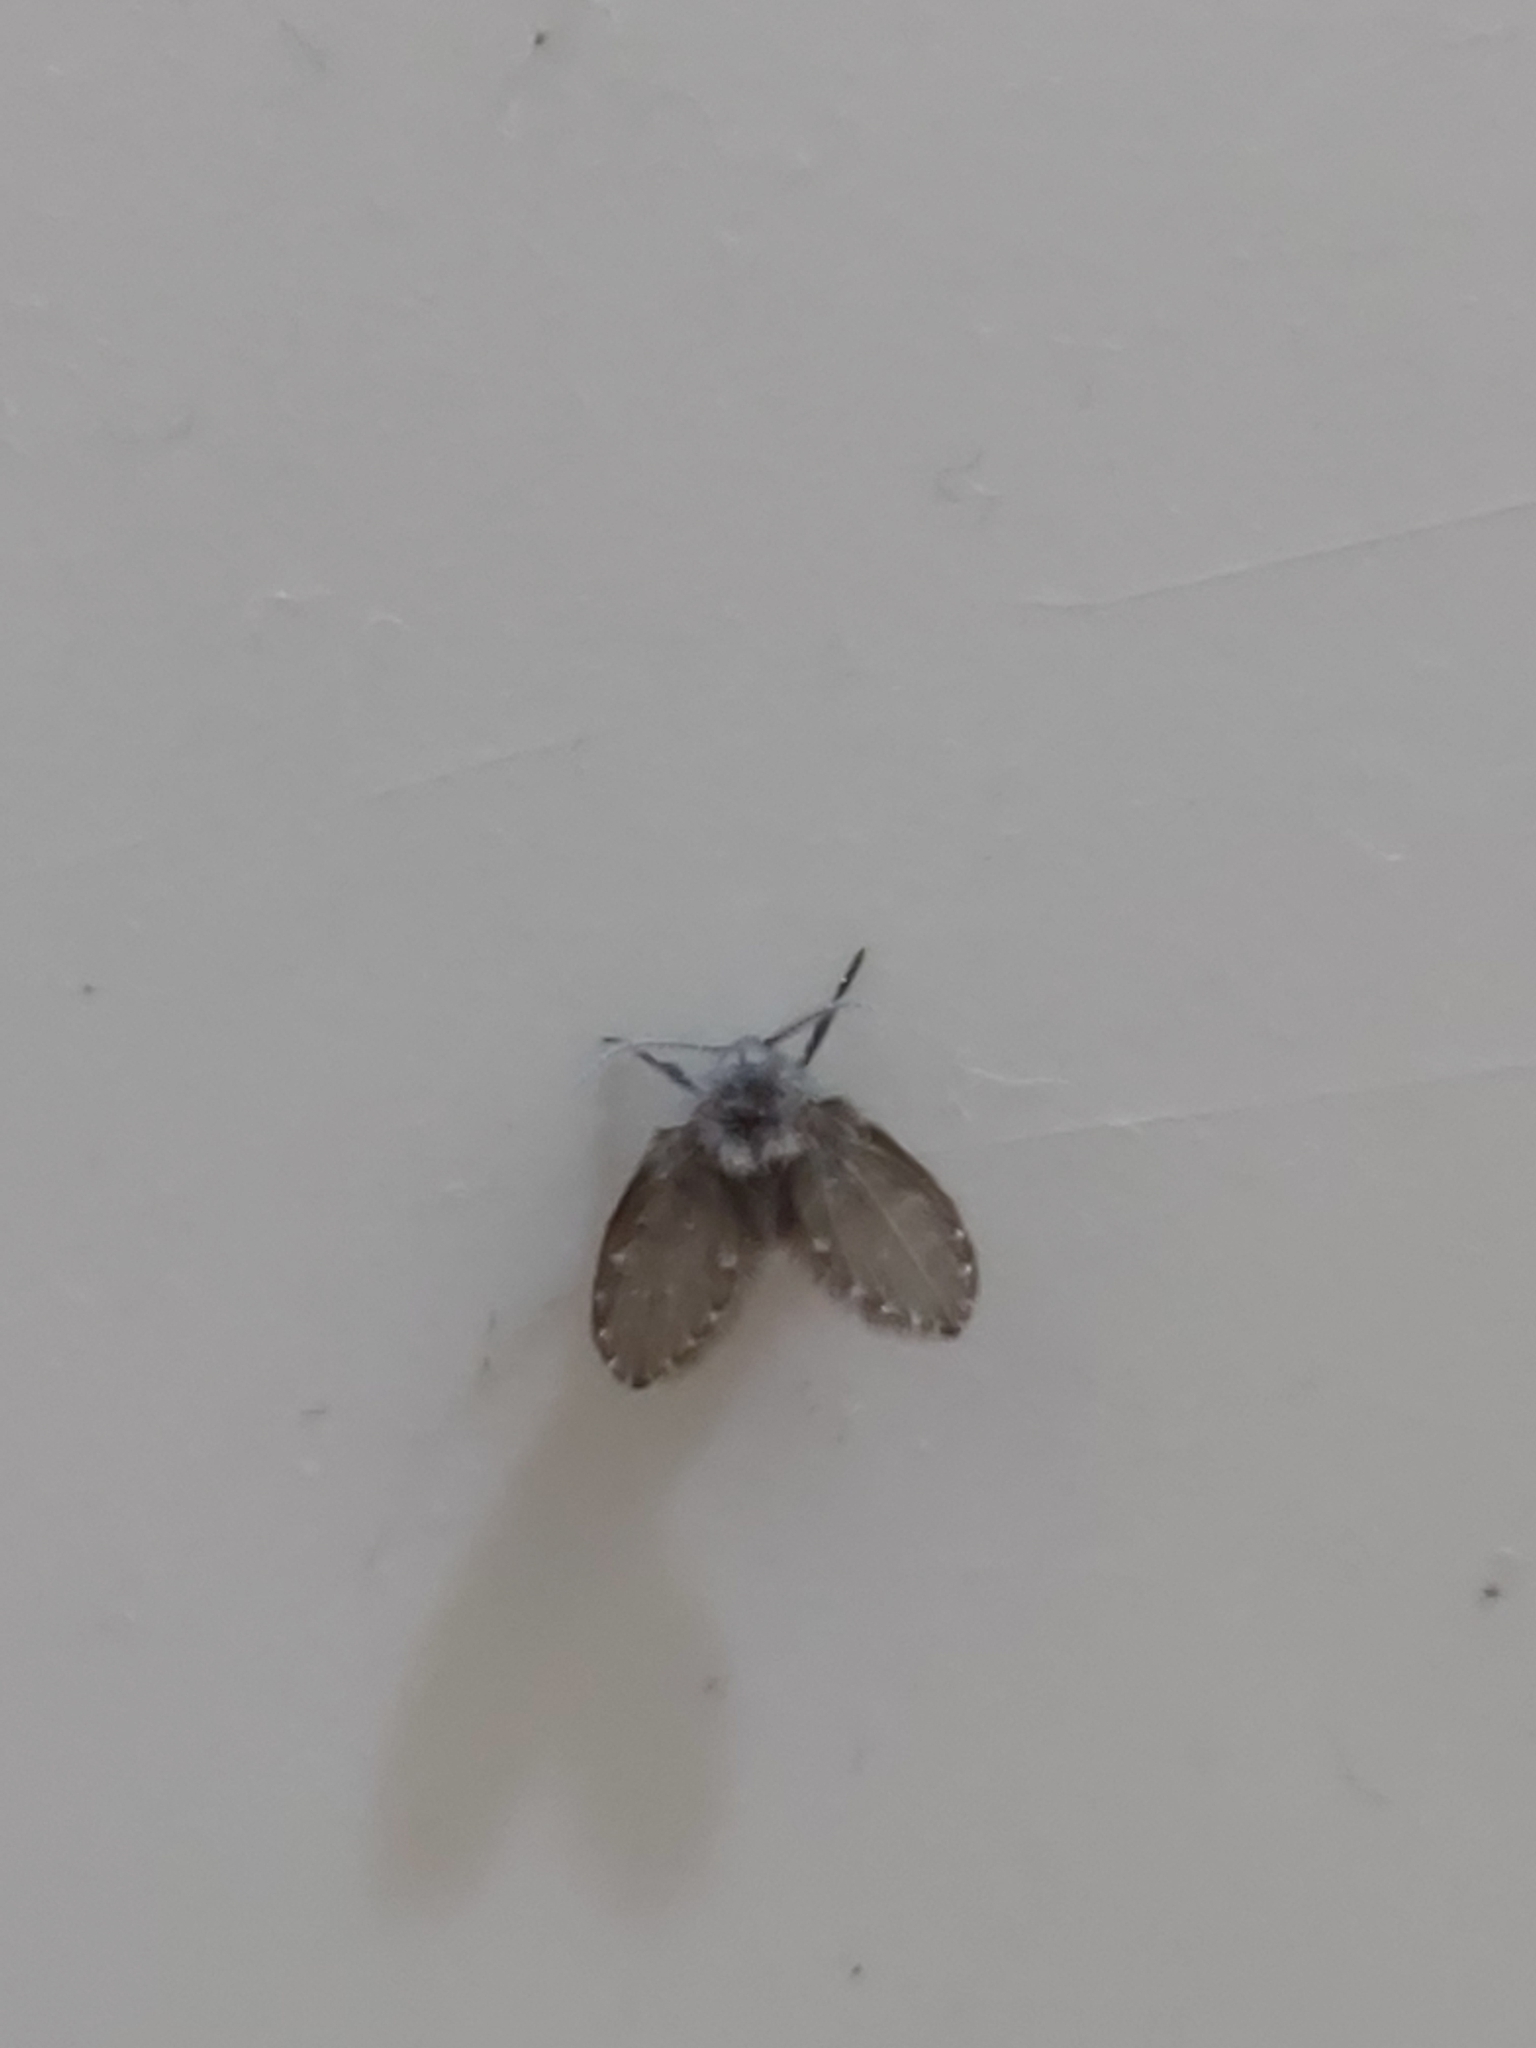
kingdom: Animalia
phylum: Arthropoda
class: Insecta
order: Diptera
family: Psychodidae
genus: Clogmia
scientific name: Clogmia albipunctatus
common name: White-spotted moth fly
